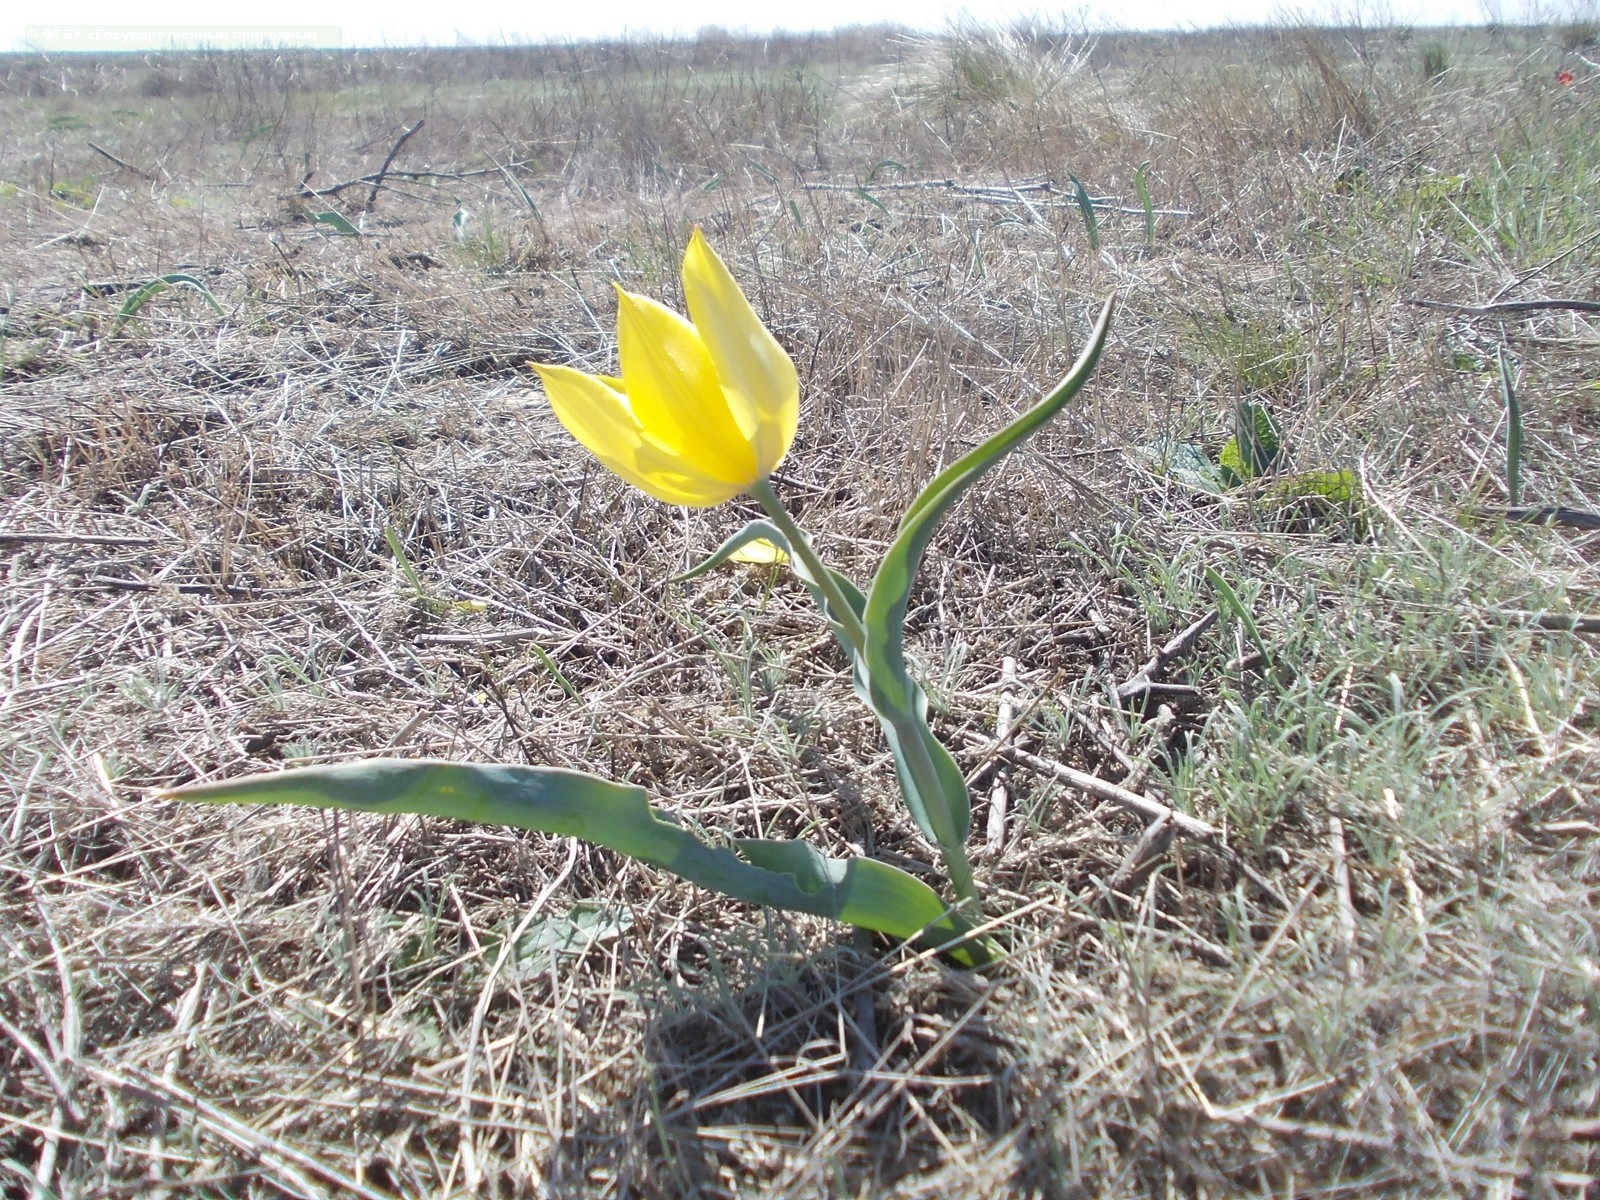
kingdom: Plantae
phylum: Tracheophyta
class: Liliopsida
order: Liliales
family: Liliaceae
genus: Tulipa
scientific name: Tulipa suaveolens
